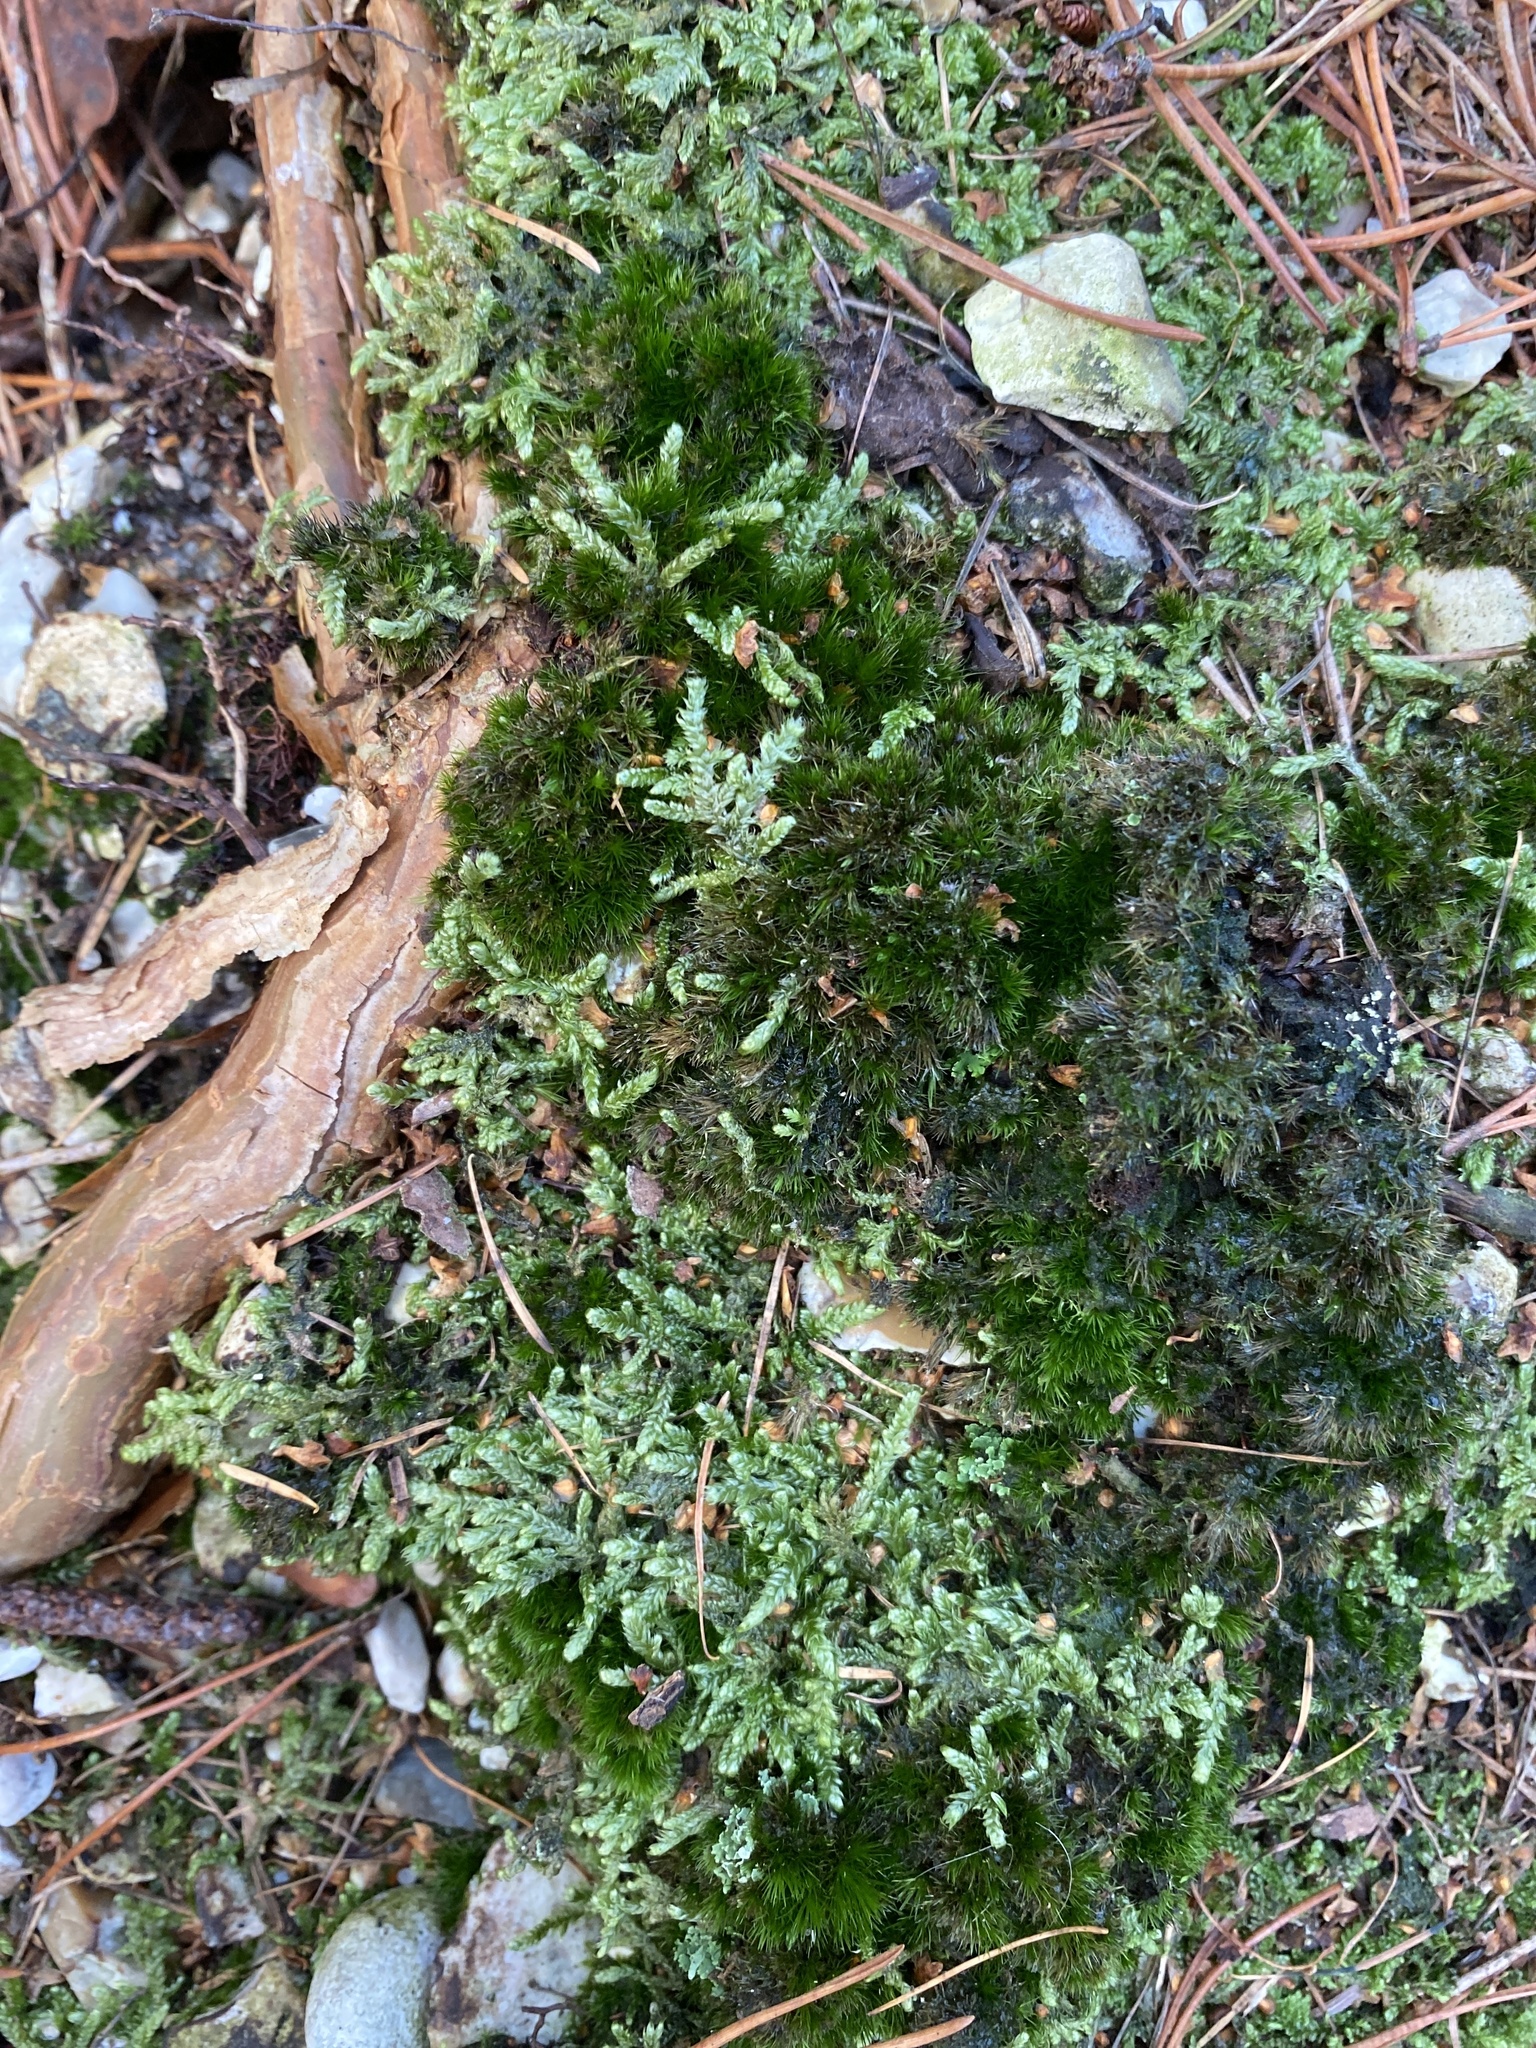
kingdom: Plantae
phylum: Bryophyta
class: Bryopsida
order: Hypnales
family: Hypnaceae
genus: Hypnum
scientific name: Hypnum cupressiforme
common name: Cypress-leaved plait-moss
